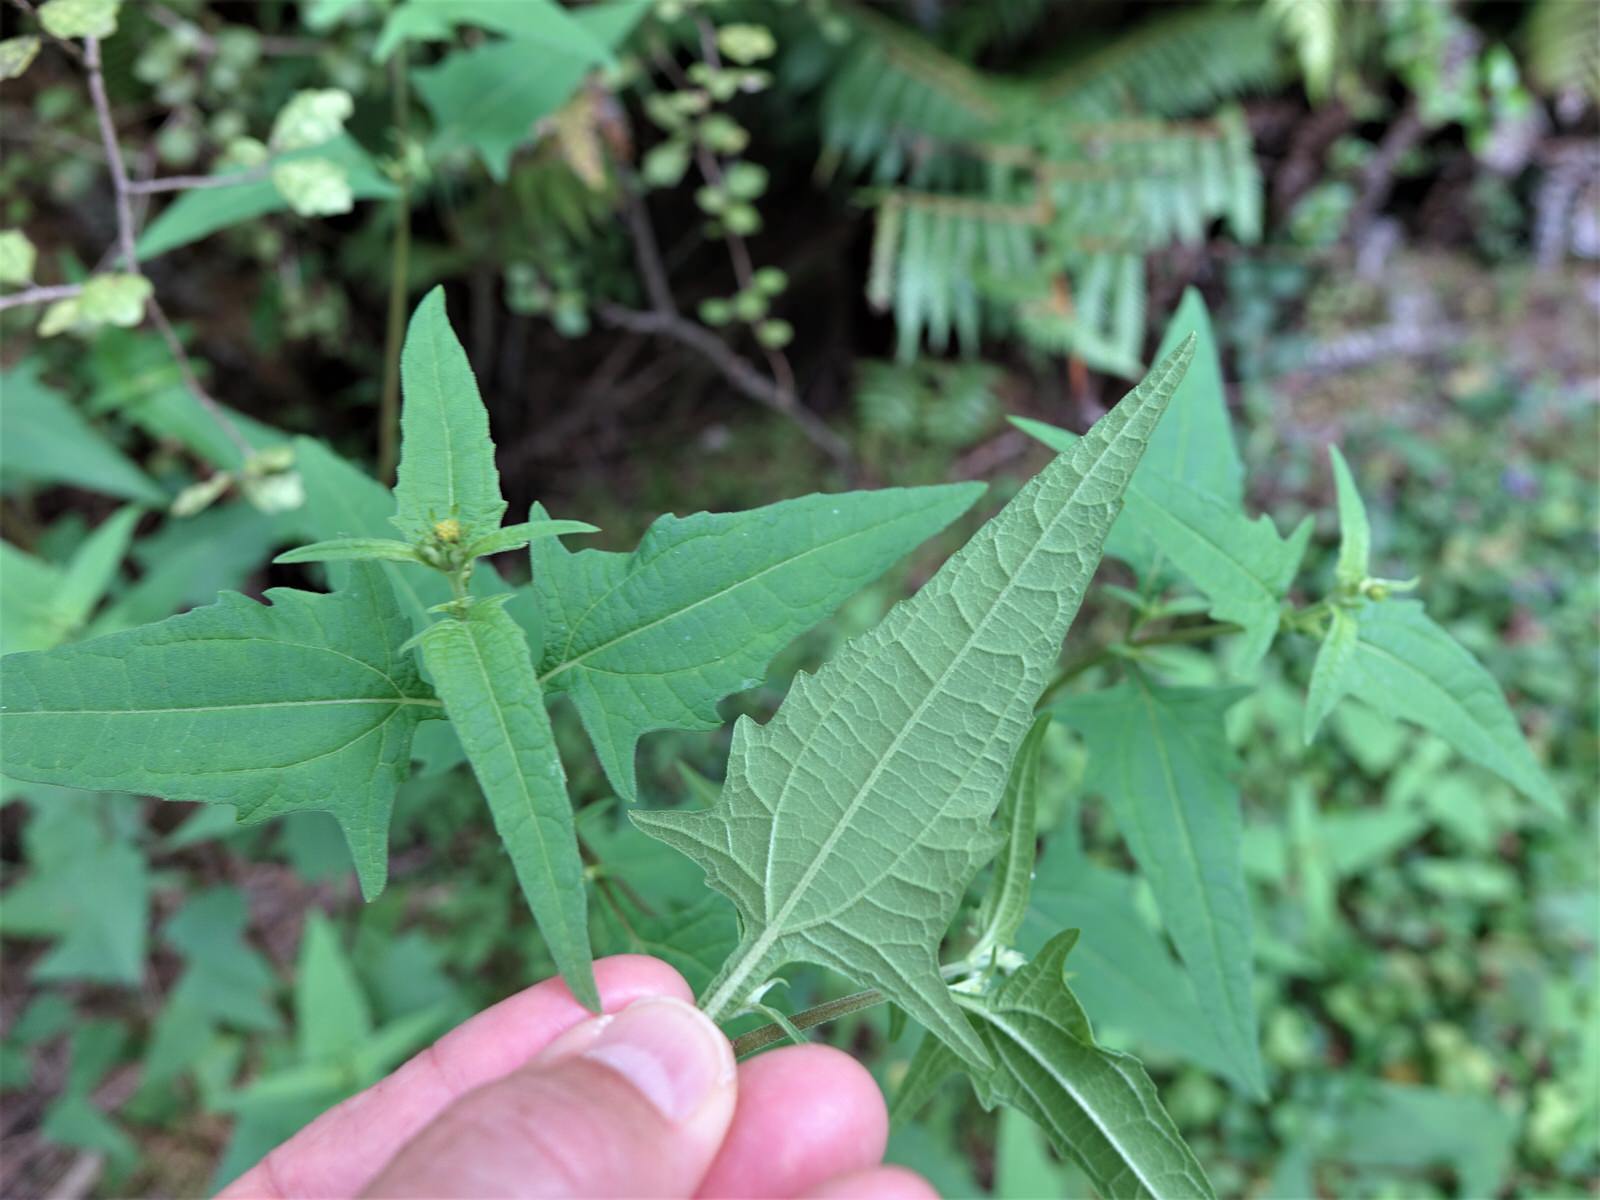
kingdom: Plantae
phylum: Tracheophyta
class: Magnoliopsida
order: Asterales
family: Asteraceae
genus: Sigesbeckia
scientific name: Sigesbeckia orientalis
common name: Eastern st paul's-wort
